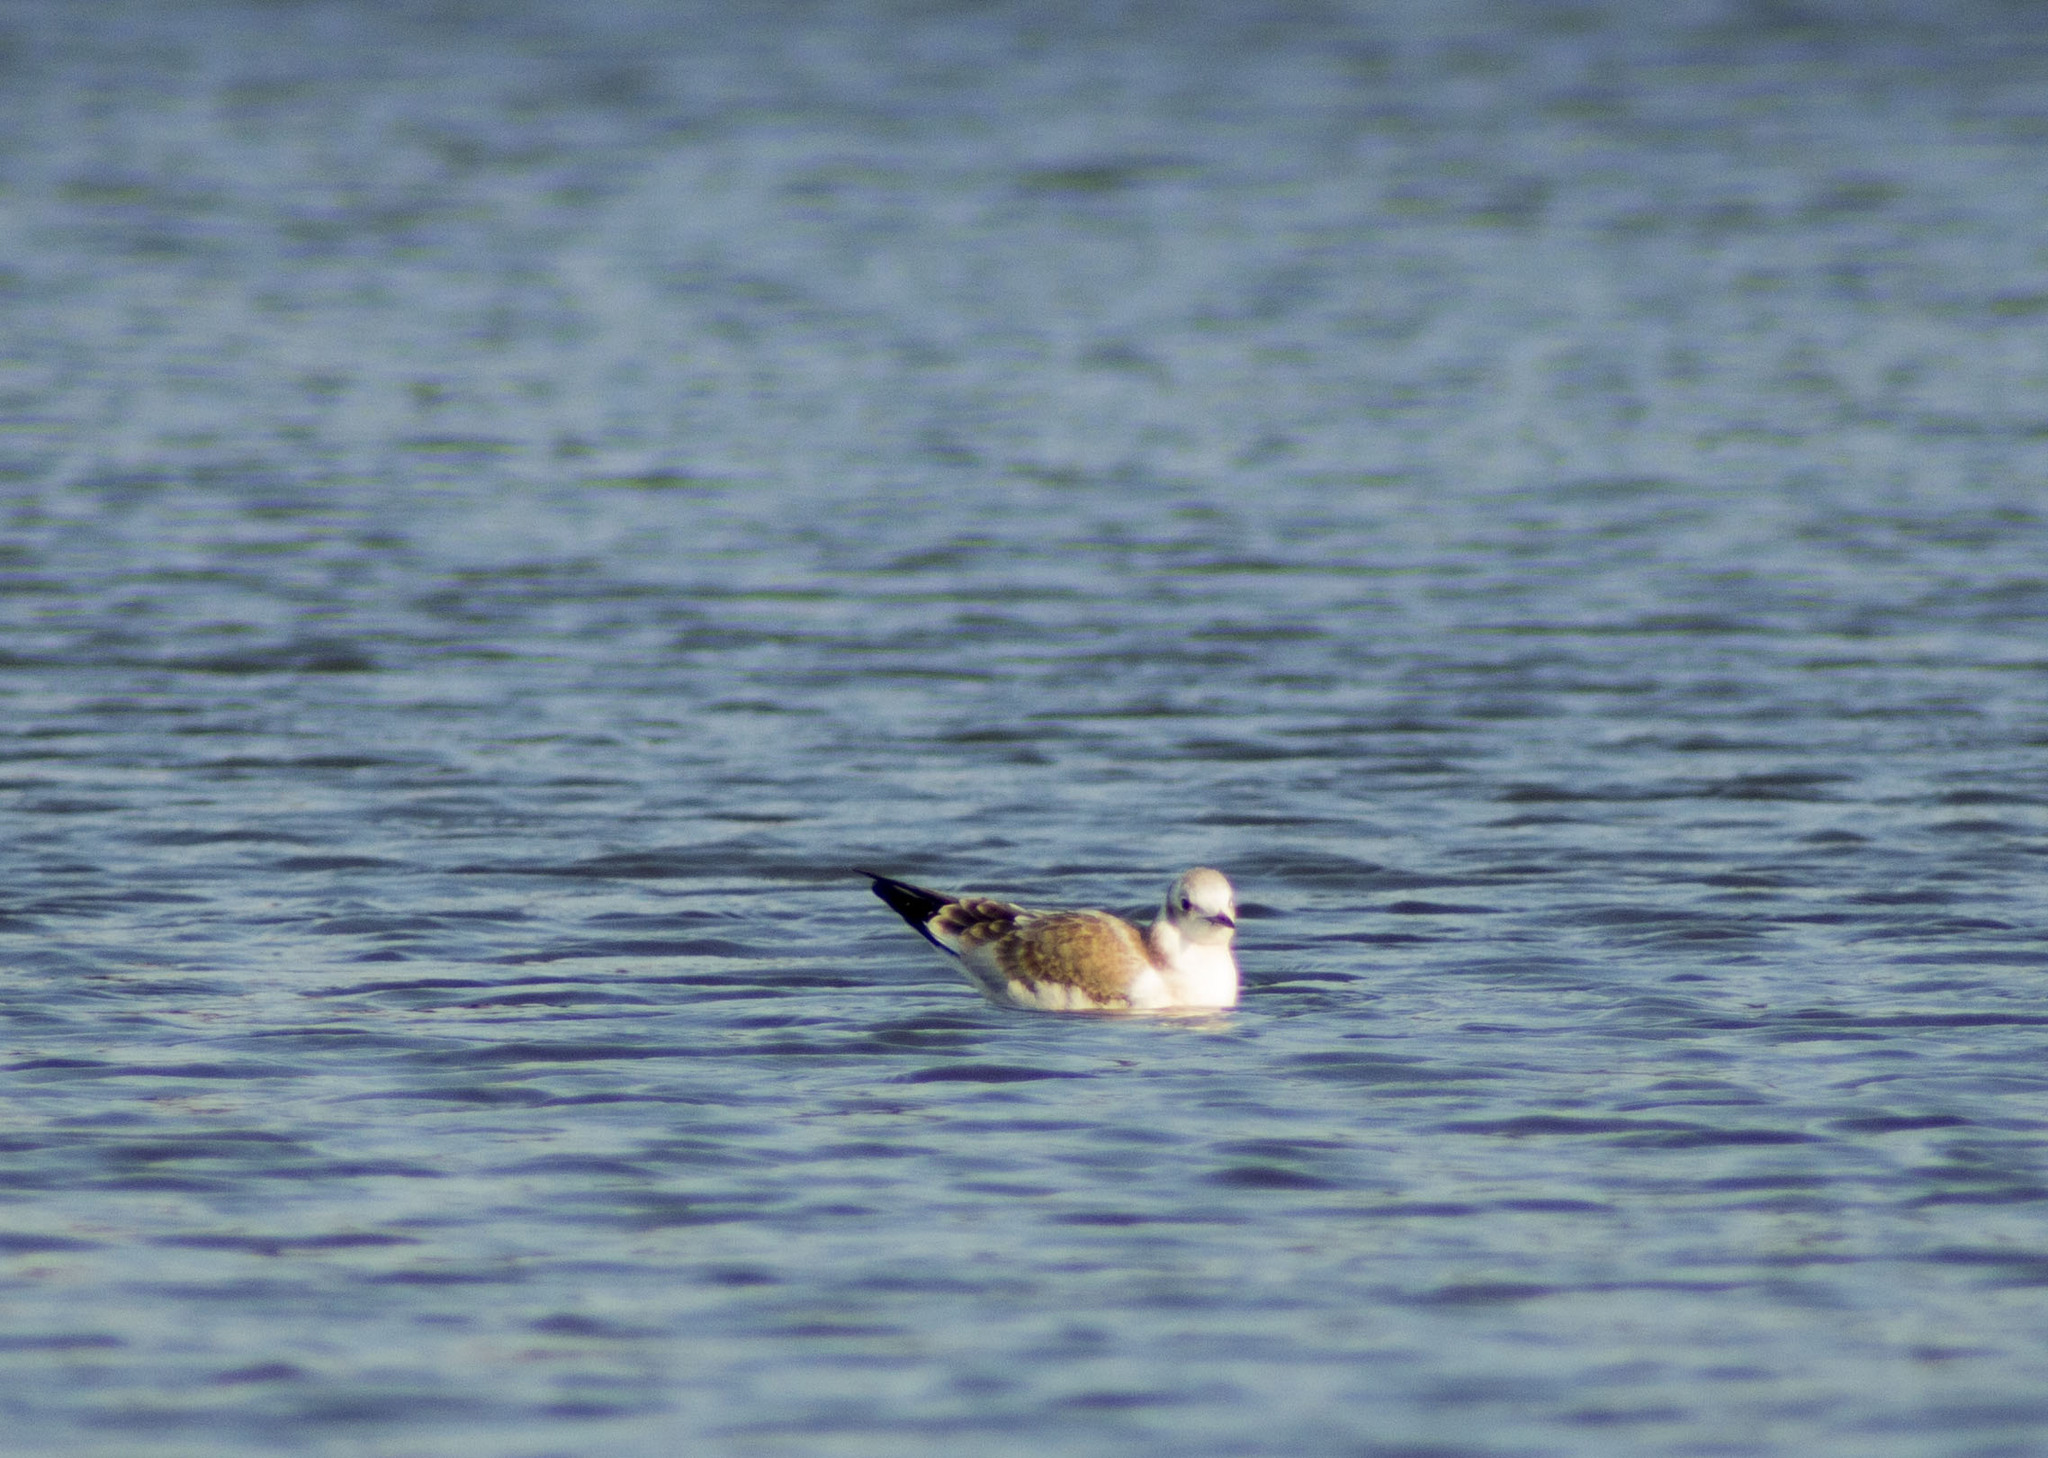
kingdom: Animalia
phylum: Chordata
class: Aves
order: Charadriiformes
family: Laridae
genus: Chroicocephalus
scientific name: Chroicocephalus ridibundus
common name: Black-headed gull
